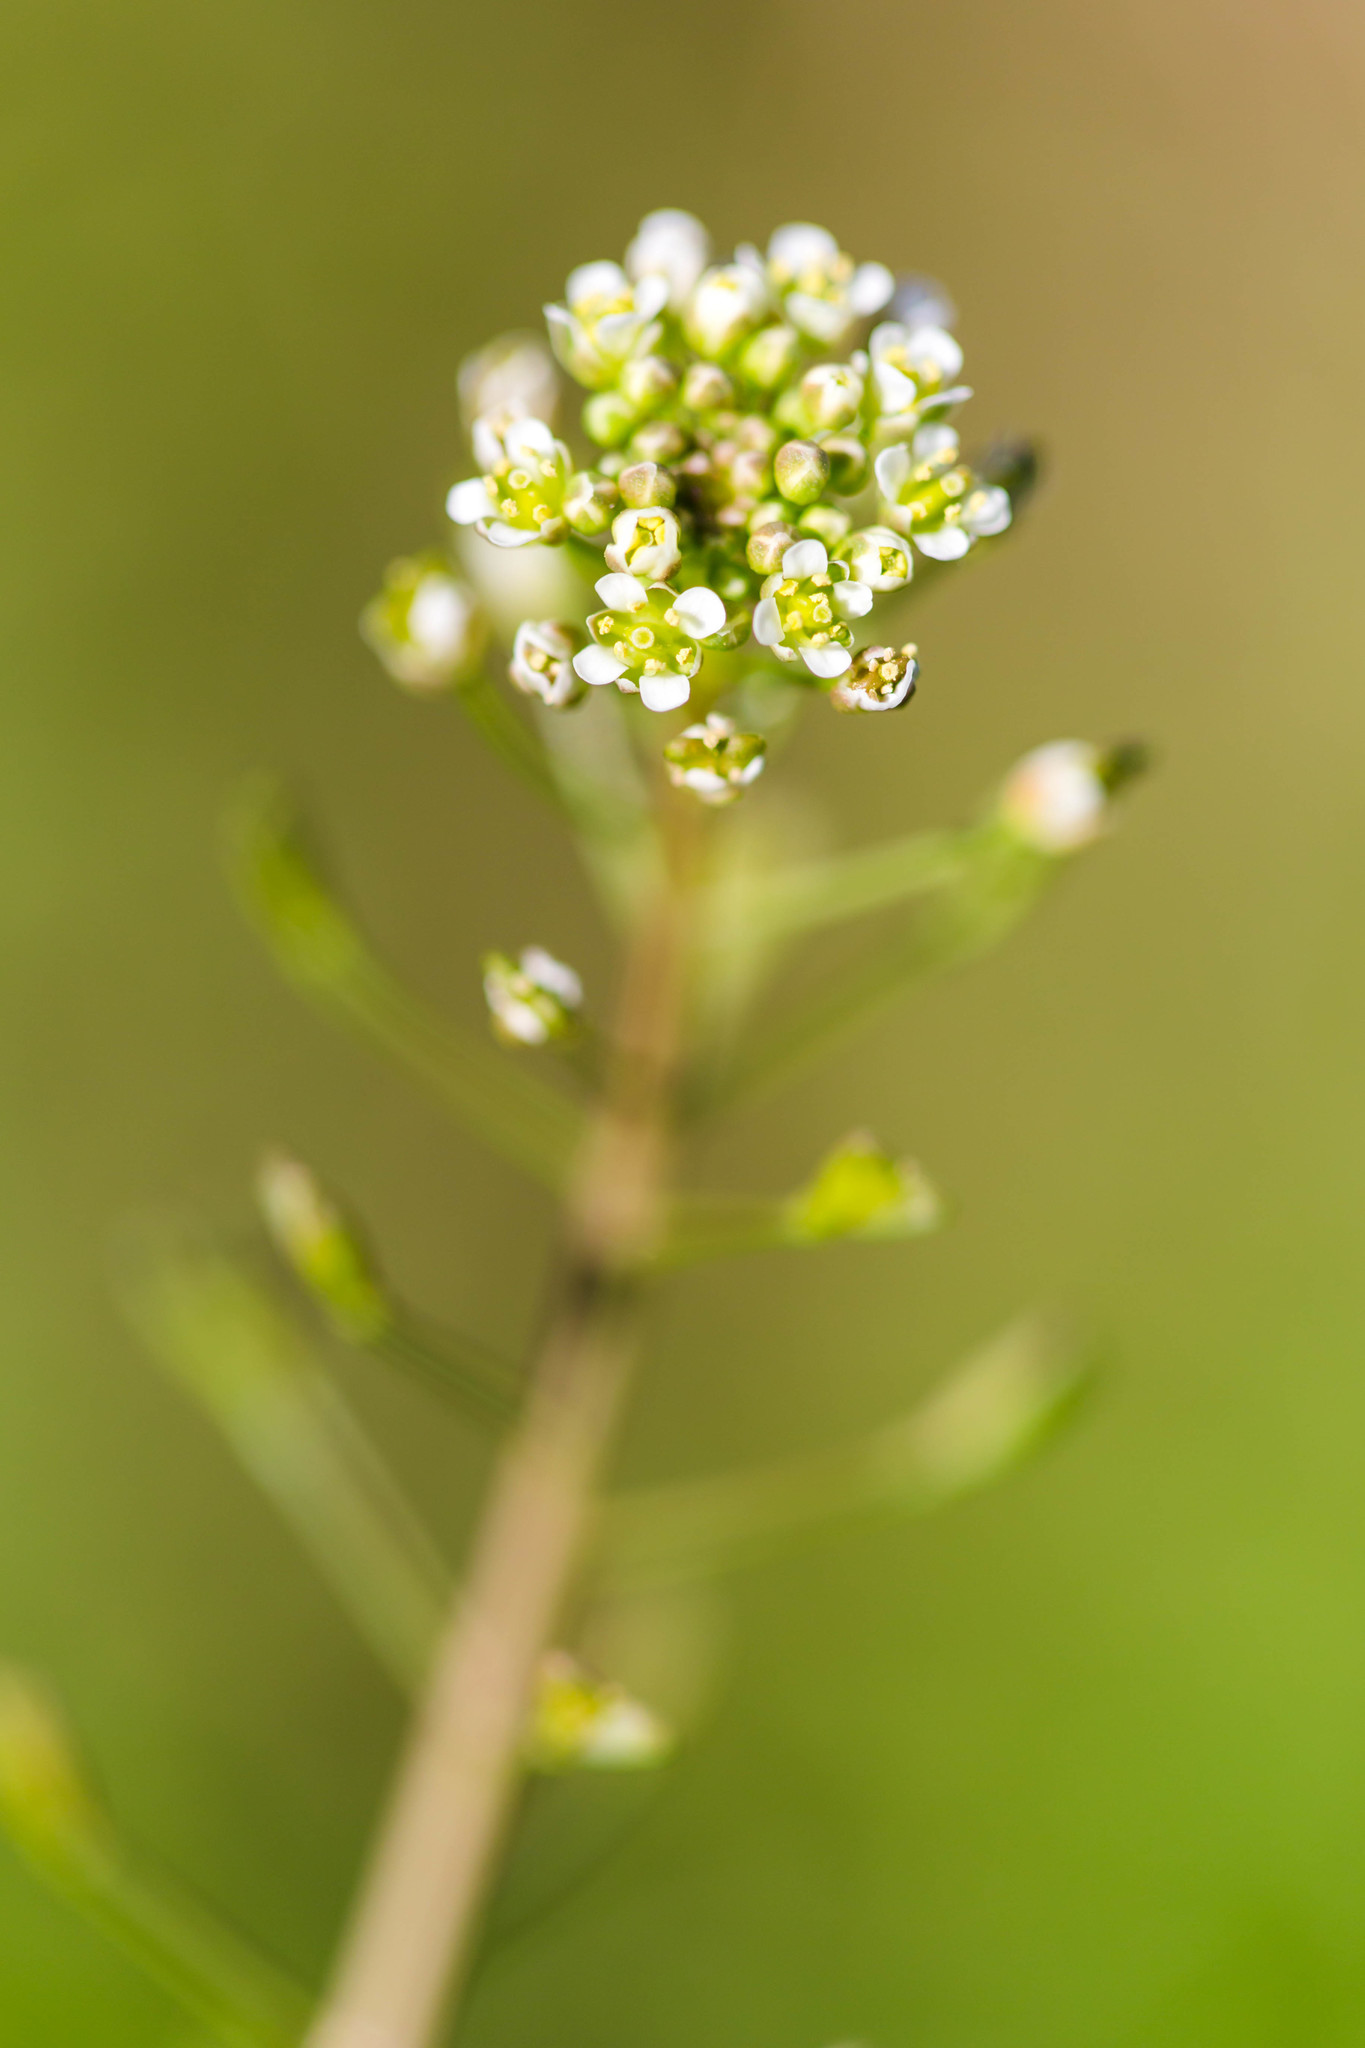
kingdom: Plantae
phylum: Tracheophyta
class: Magnoliopsida
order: Brassicales
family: Brassicaceae
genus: Capsella
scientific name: Capsella bursa-pastoris
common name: Shepherd's purse
